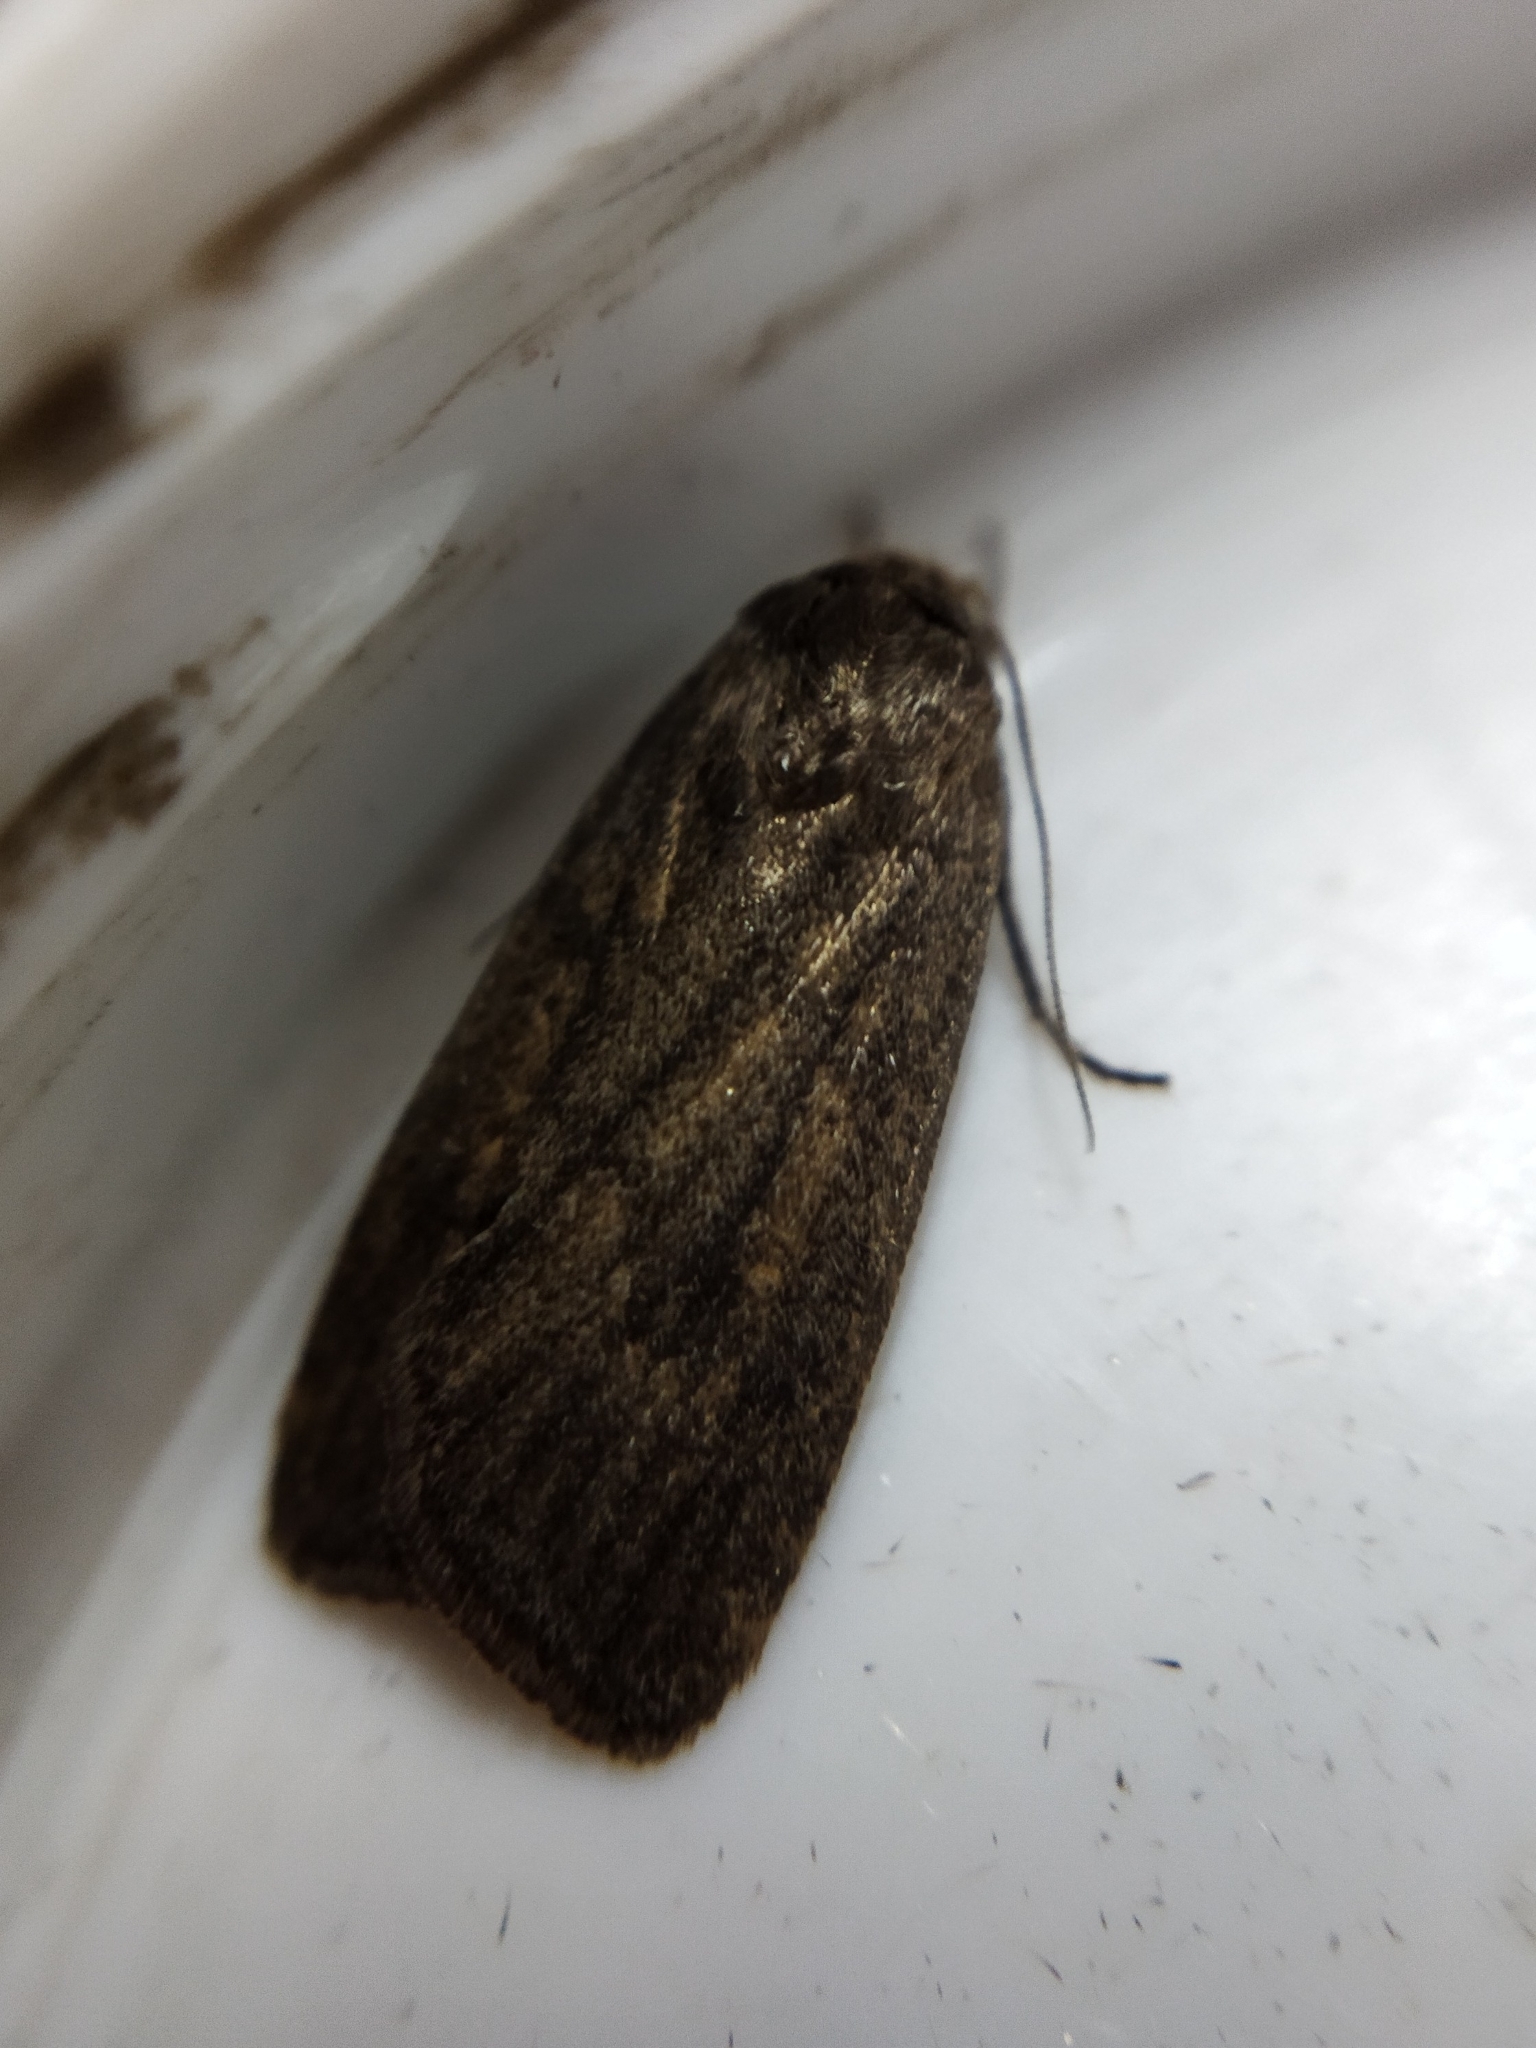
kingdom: Animalia
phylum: Arthropoda
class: Insecta
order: Lepidoptera
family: Noctuidae
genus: Athetis
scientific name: Athetis lepigone
